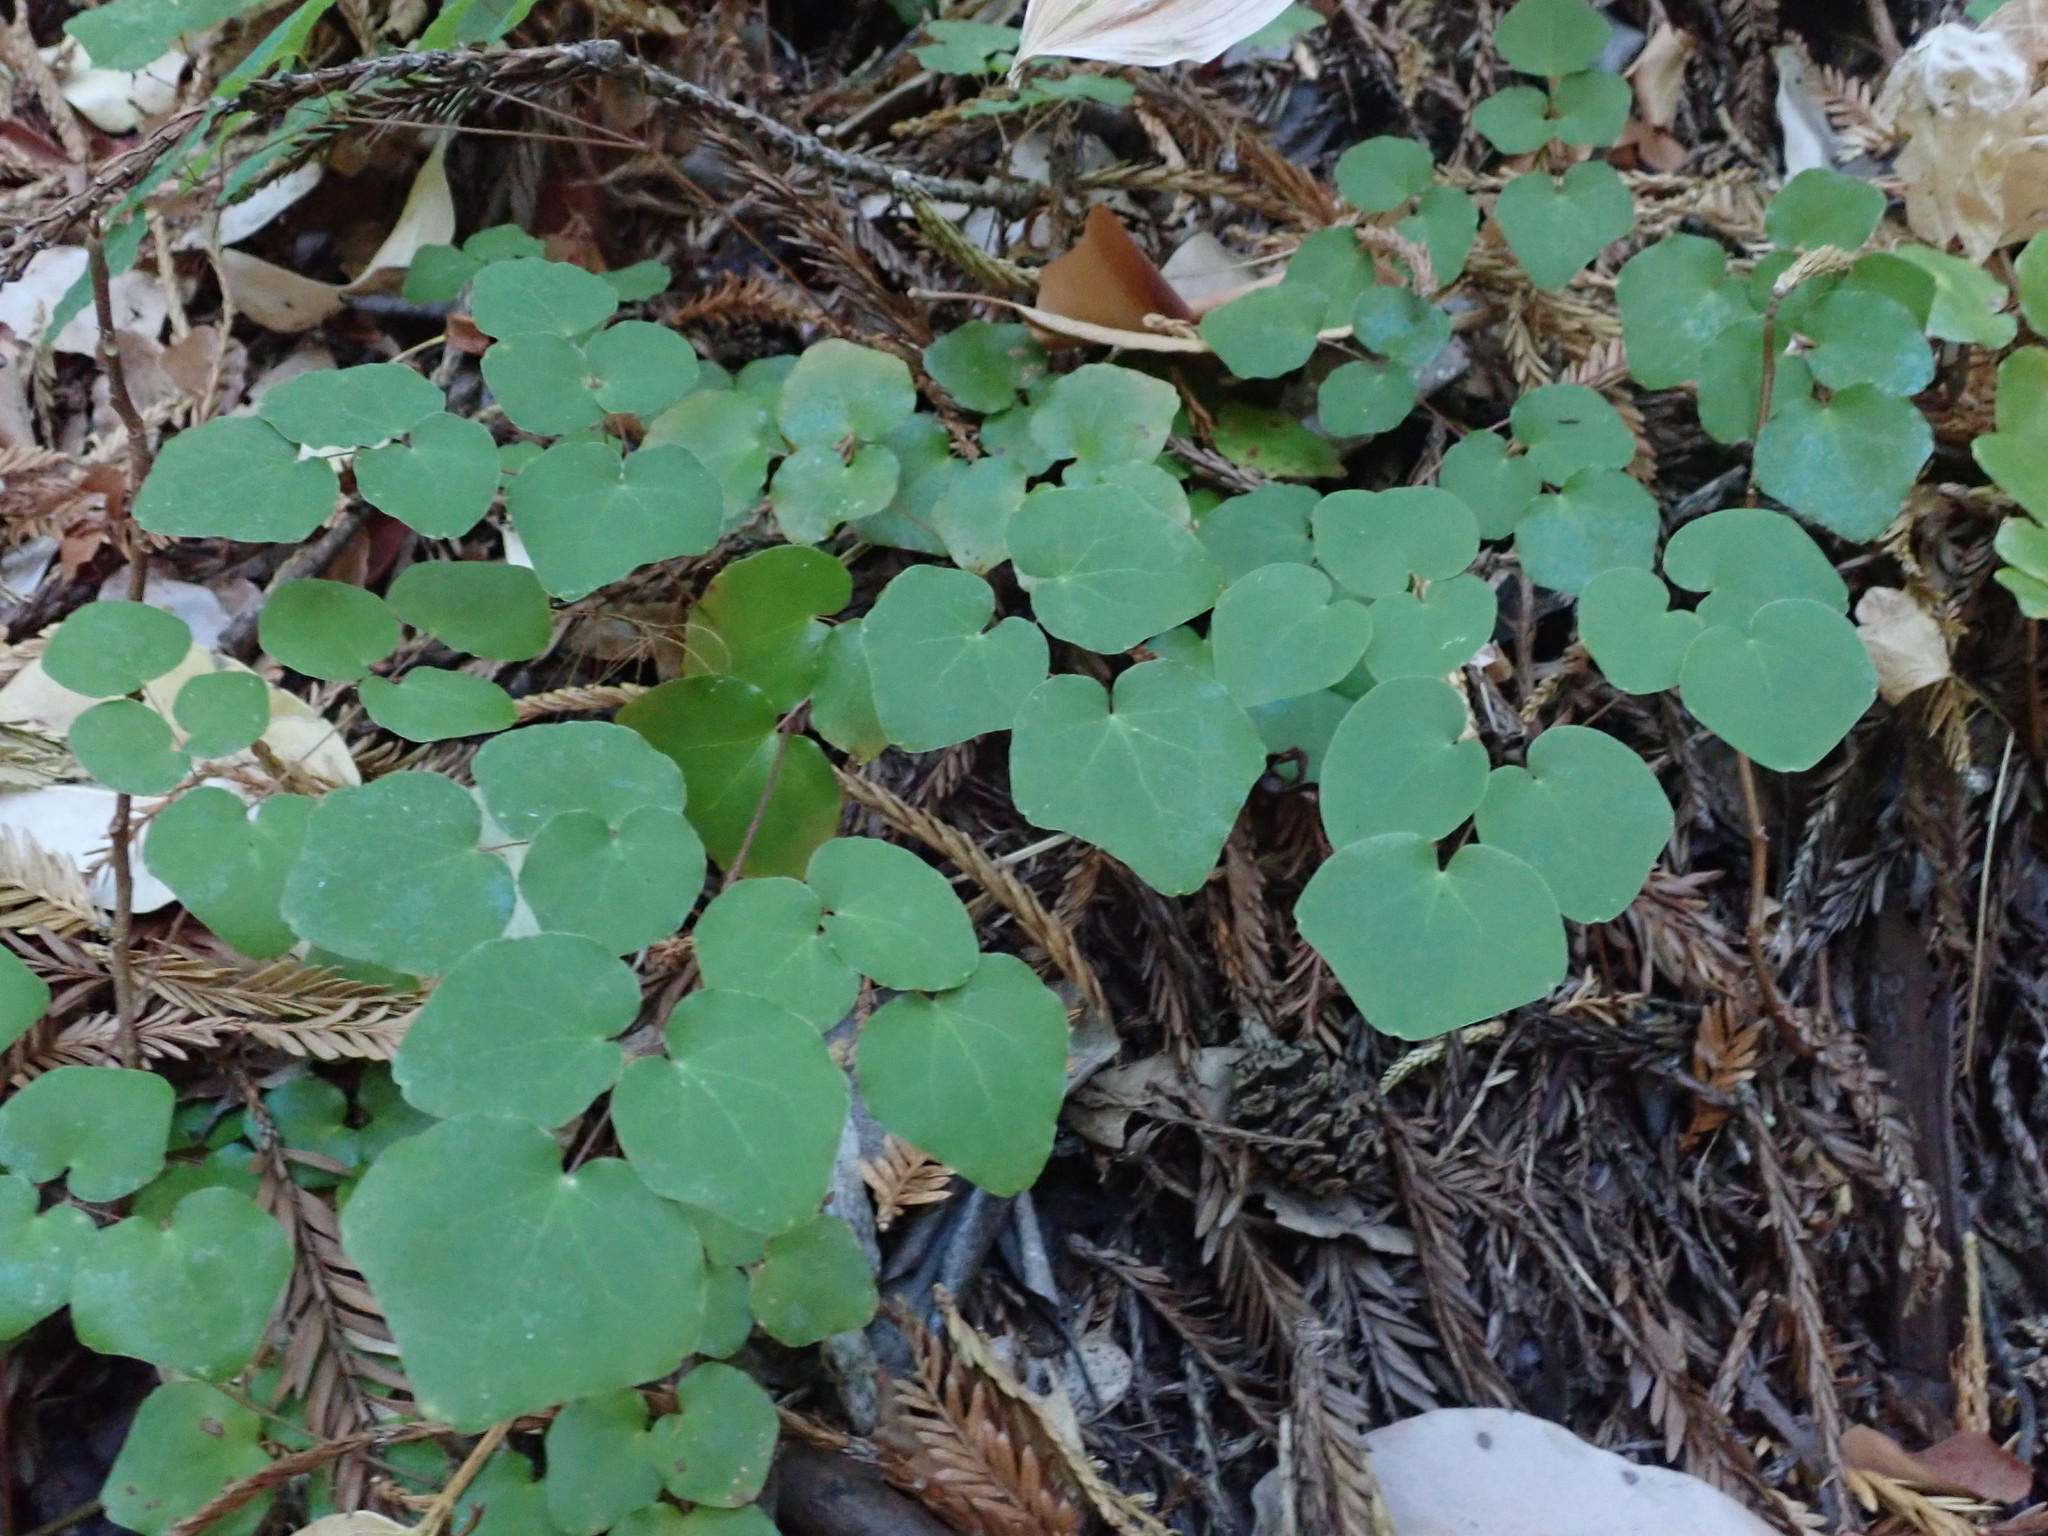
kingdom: Plantae
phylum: Tracheophyta
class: Magnoliopsida
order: Ranunculales
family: Berberidaceae
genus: Vancouveria
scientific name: Vancouveria planipetala
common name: Redwood-ivy
